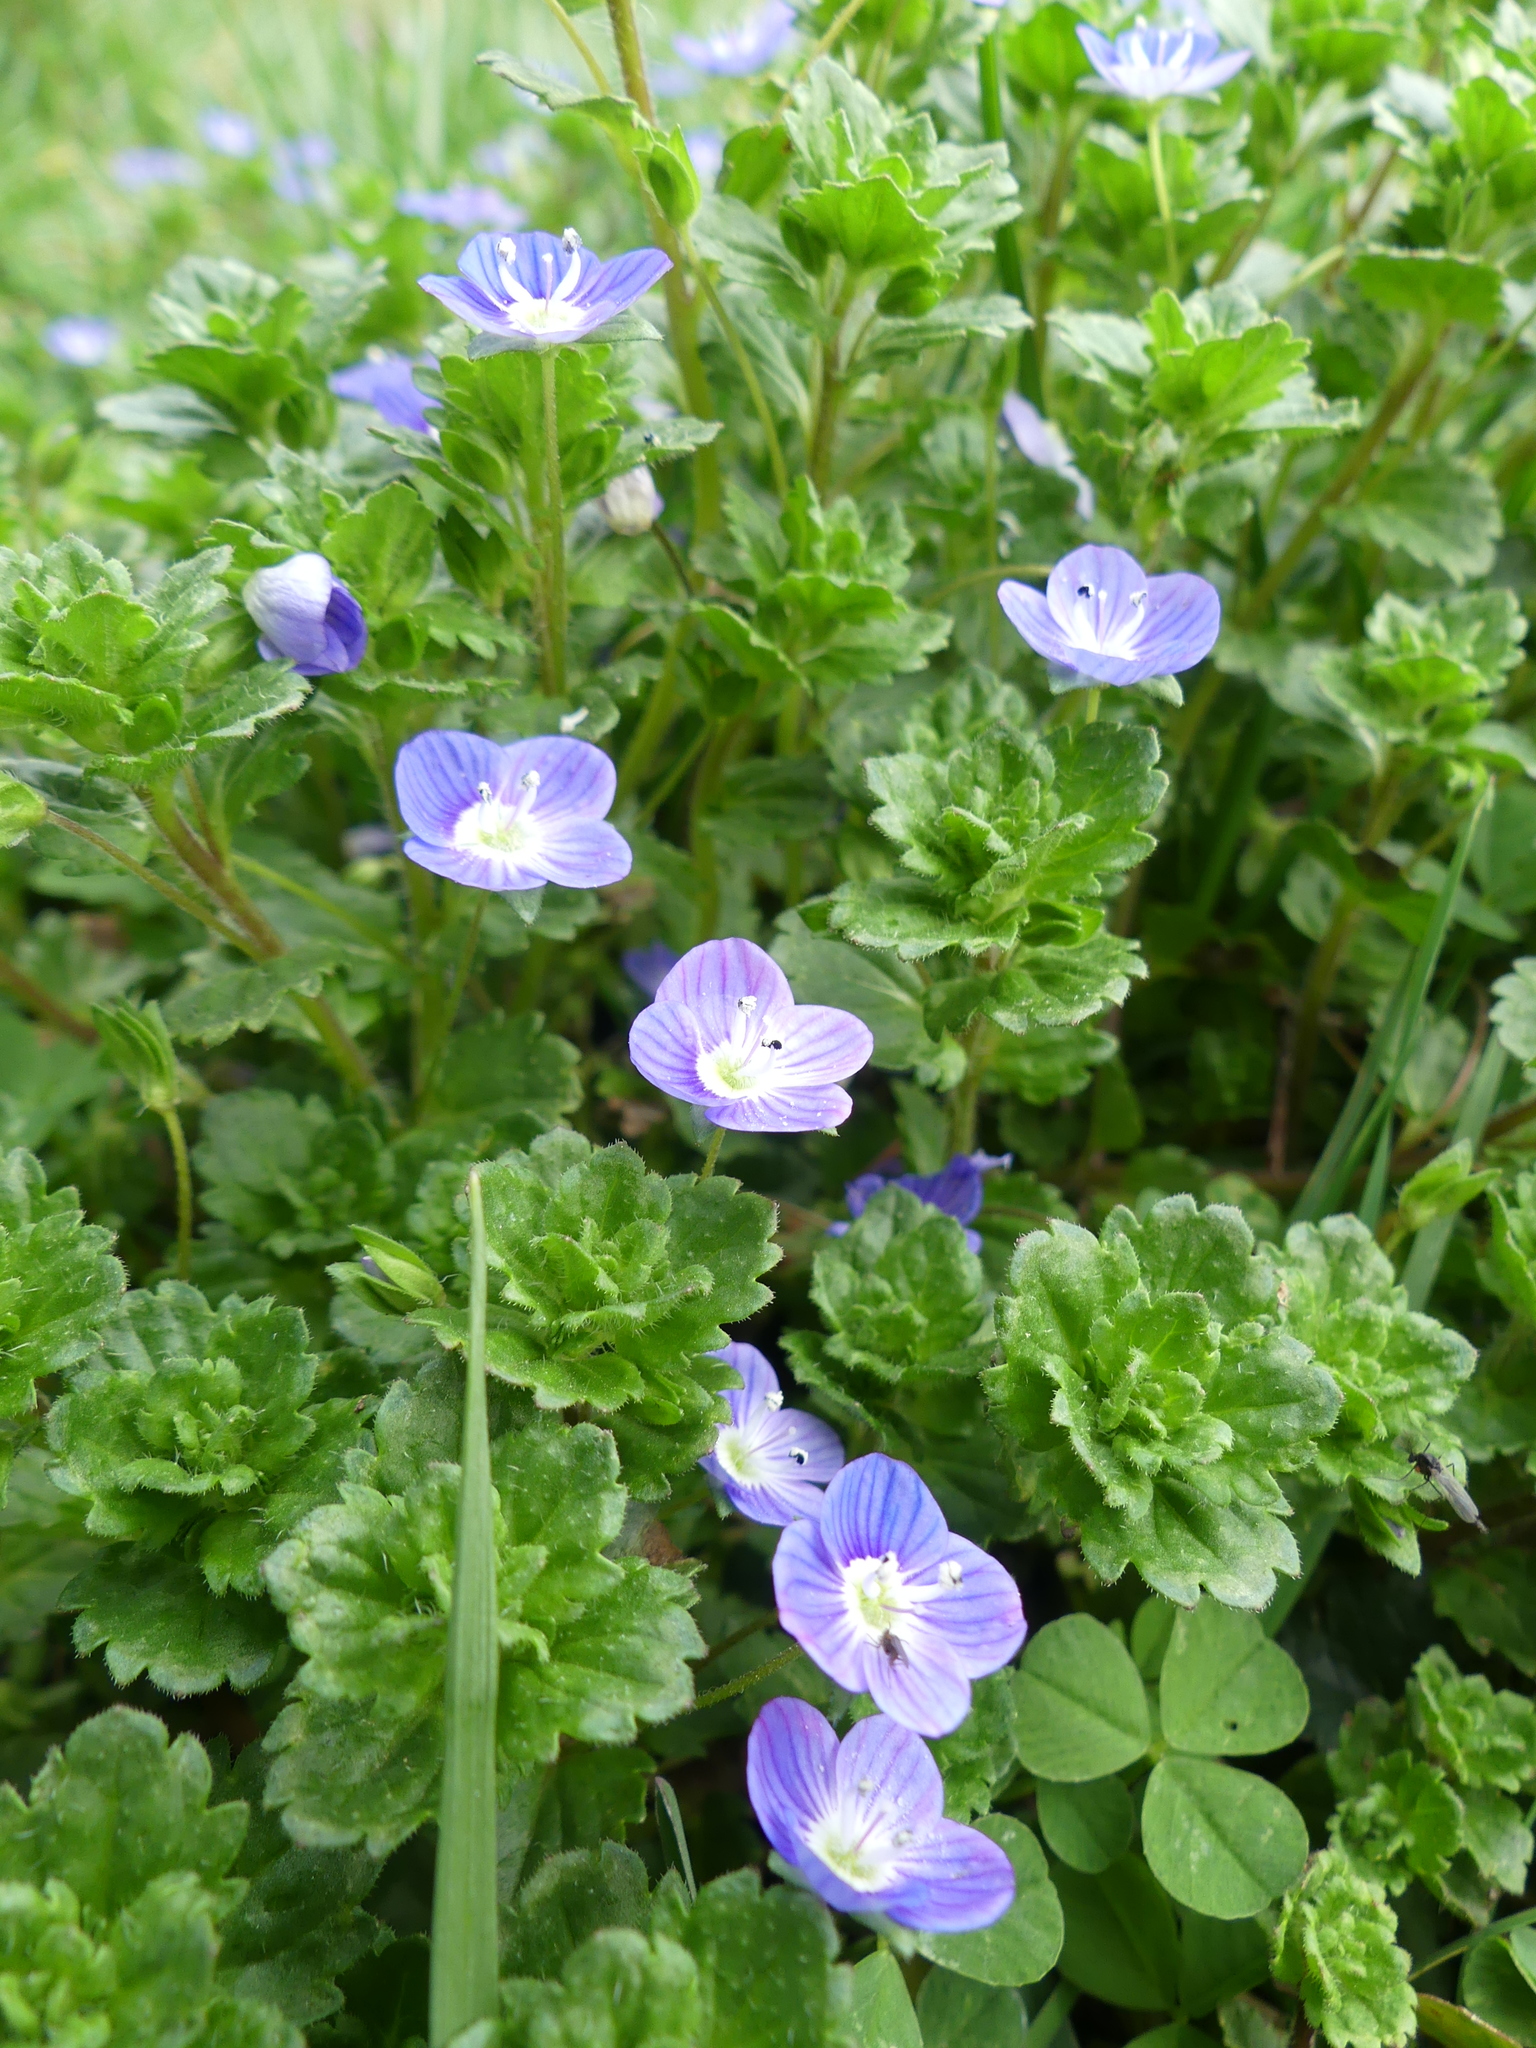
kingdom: Plantae
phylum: Tracheophyta
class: Magnoliopsida
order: Lamiales
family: Plantaginaceae
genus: Veronica
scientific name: Veronica persica
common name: Common field-speedwell
